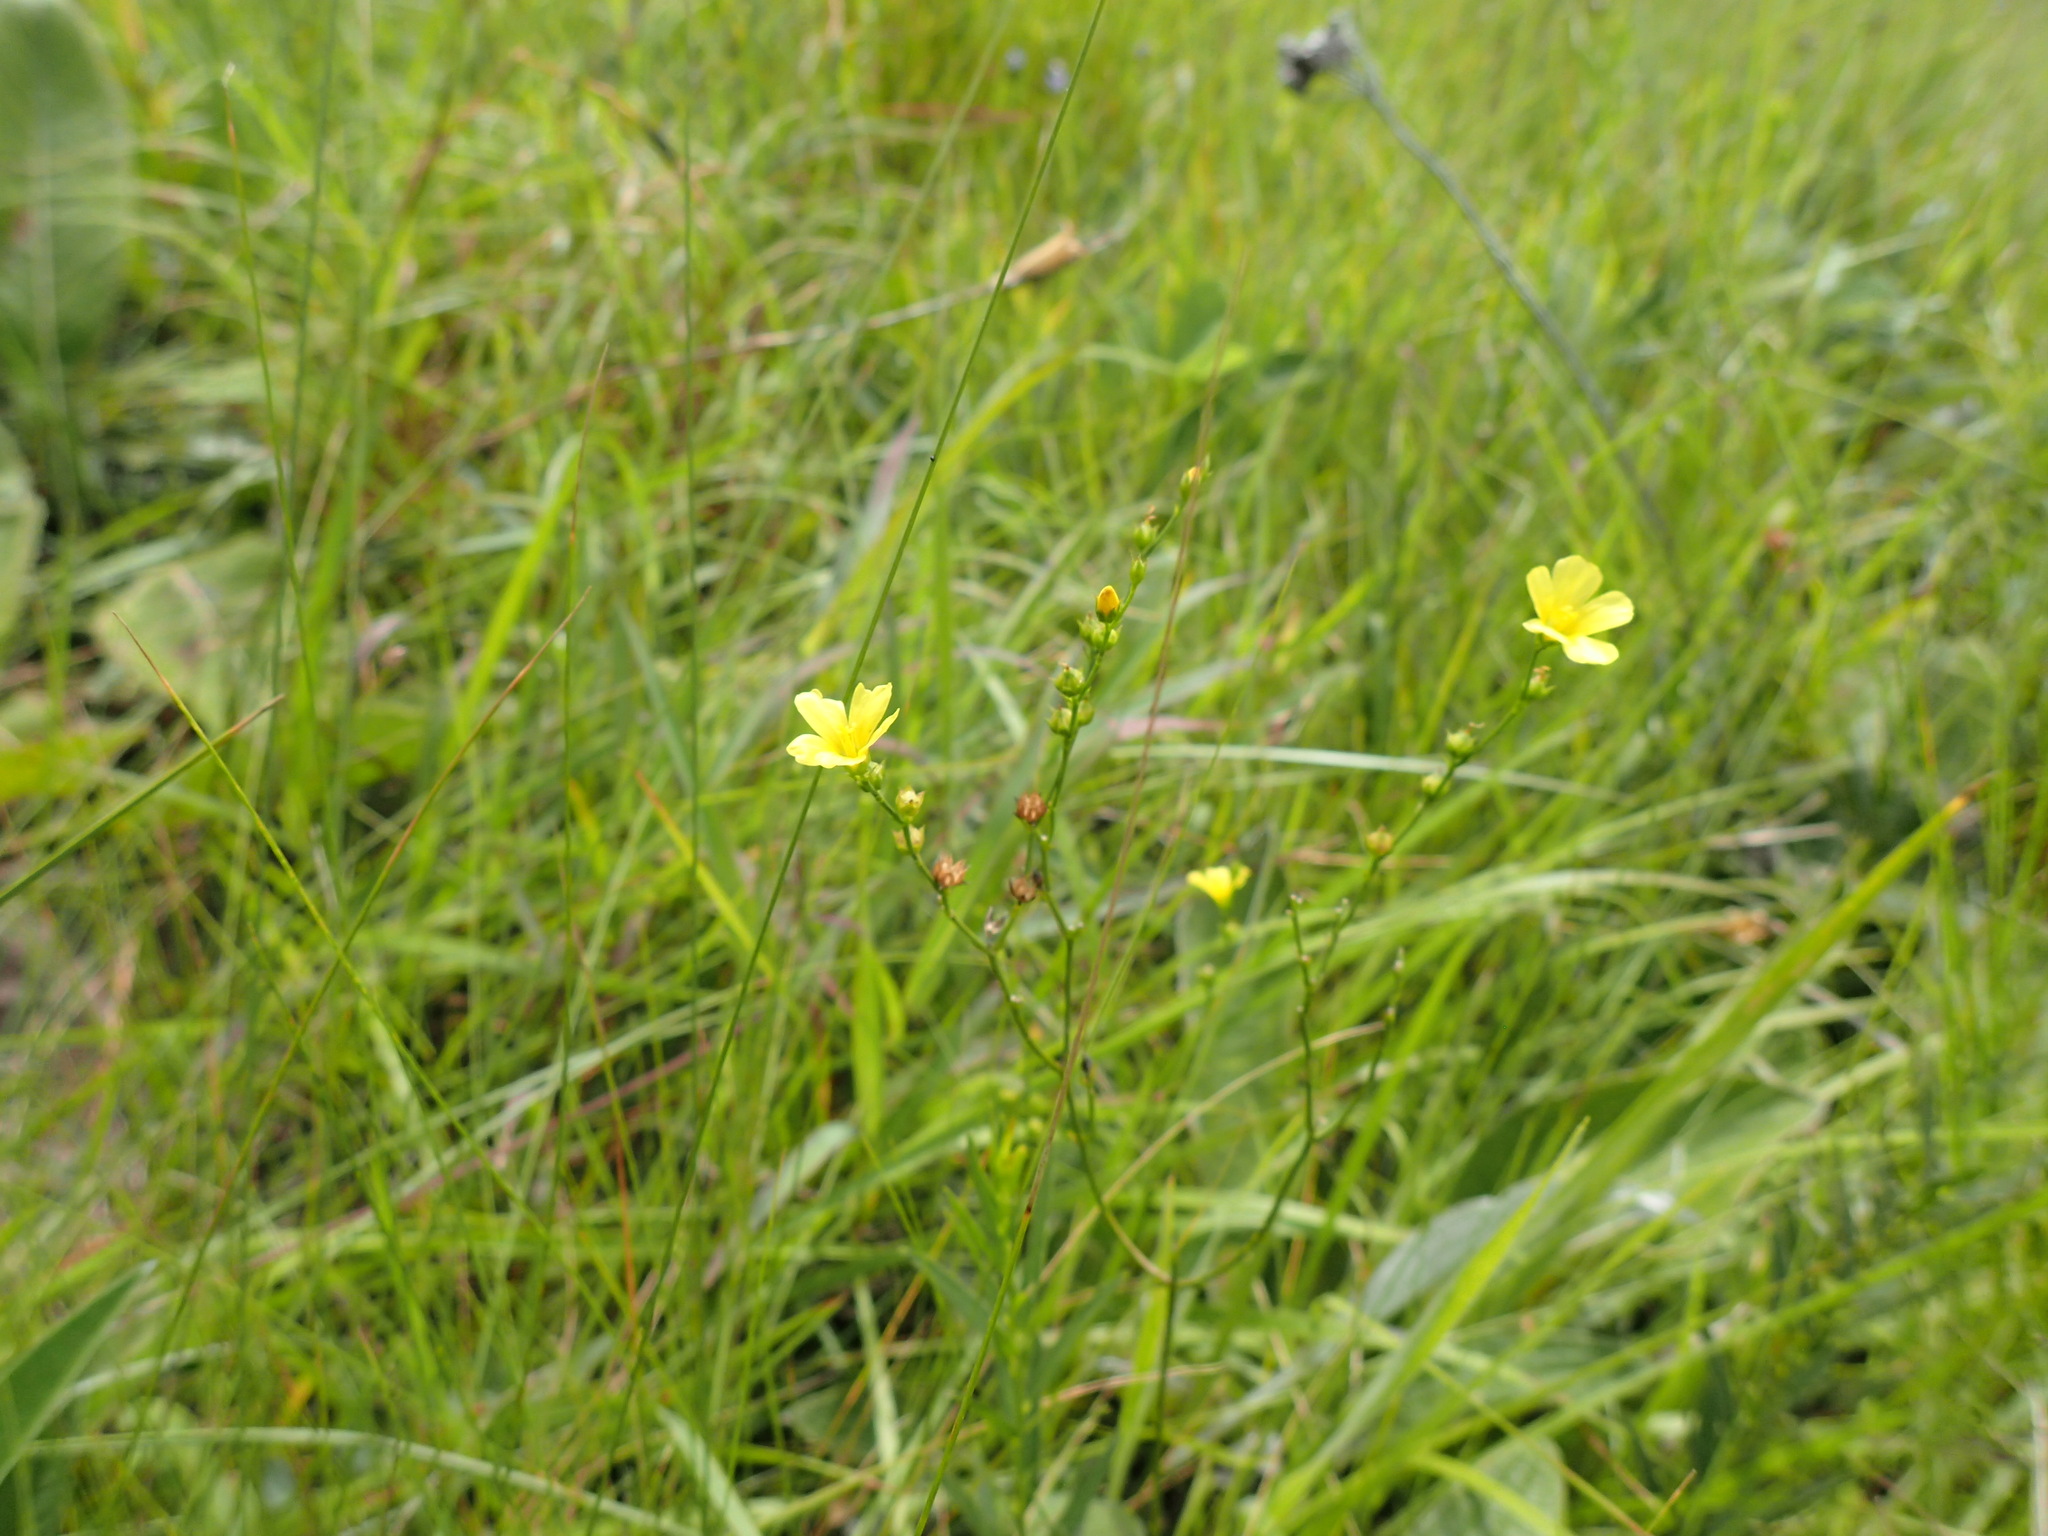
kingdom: Plantae
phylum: Tracheophyta
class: Magnoliopsida
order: Malpighiales
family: Linaceae
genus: Linum
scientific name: Linum thunbergii
